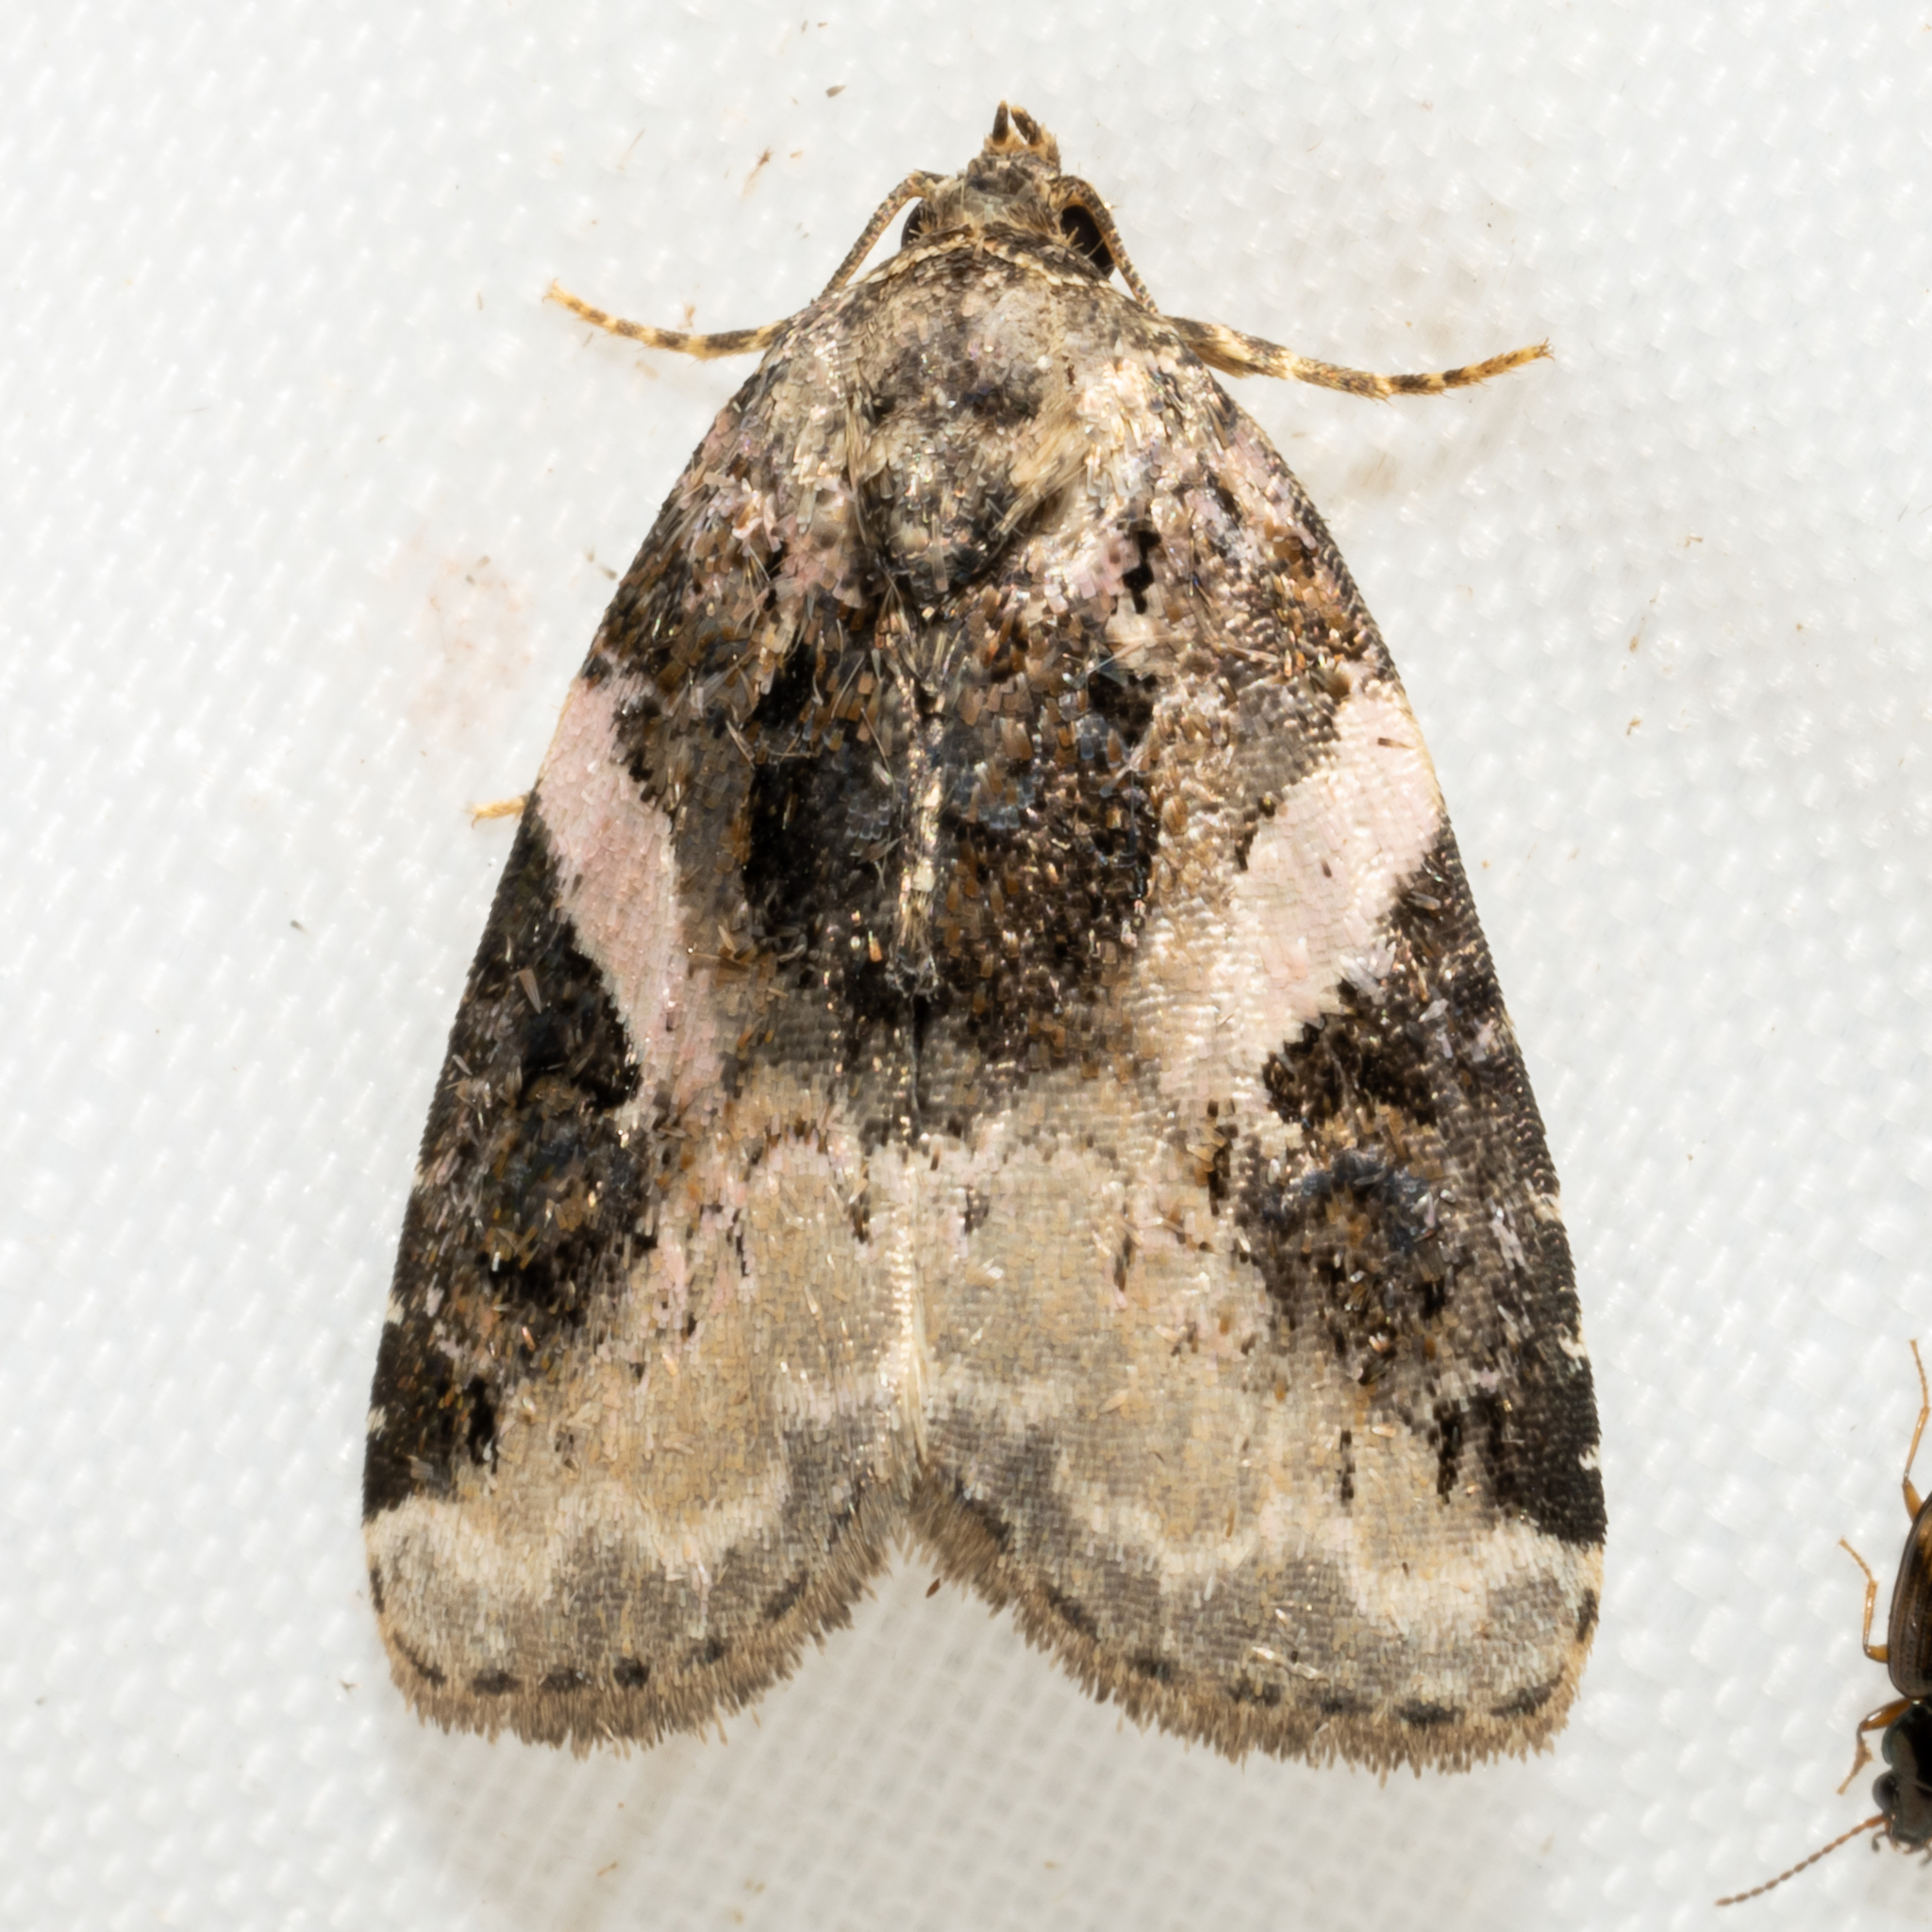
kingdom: Animalia
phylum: Arthropoda
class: Insecta
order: Lepidoptera
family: Noctuidae
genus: Pseudeustrotia
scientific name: Pseudeustrotia carneola
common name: Pink-barred lithacodia moth
